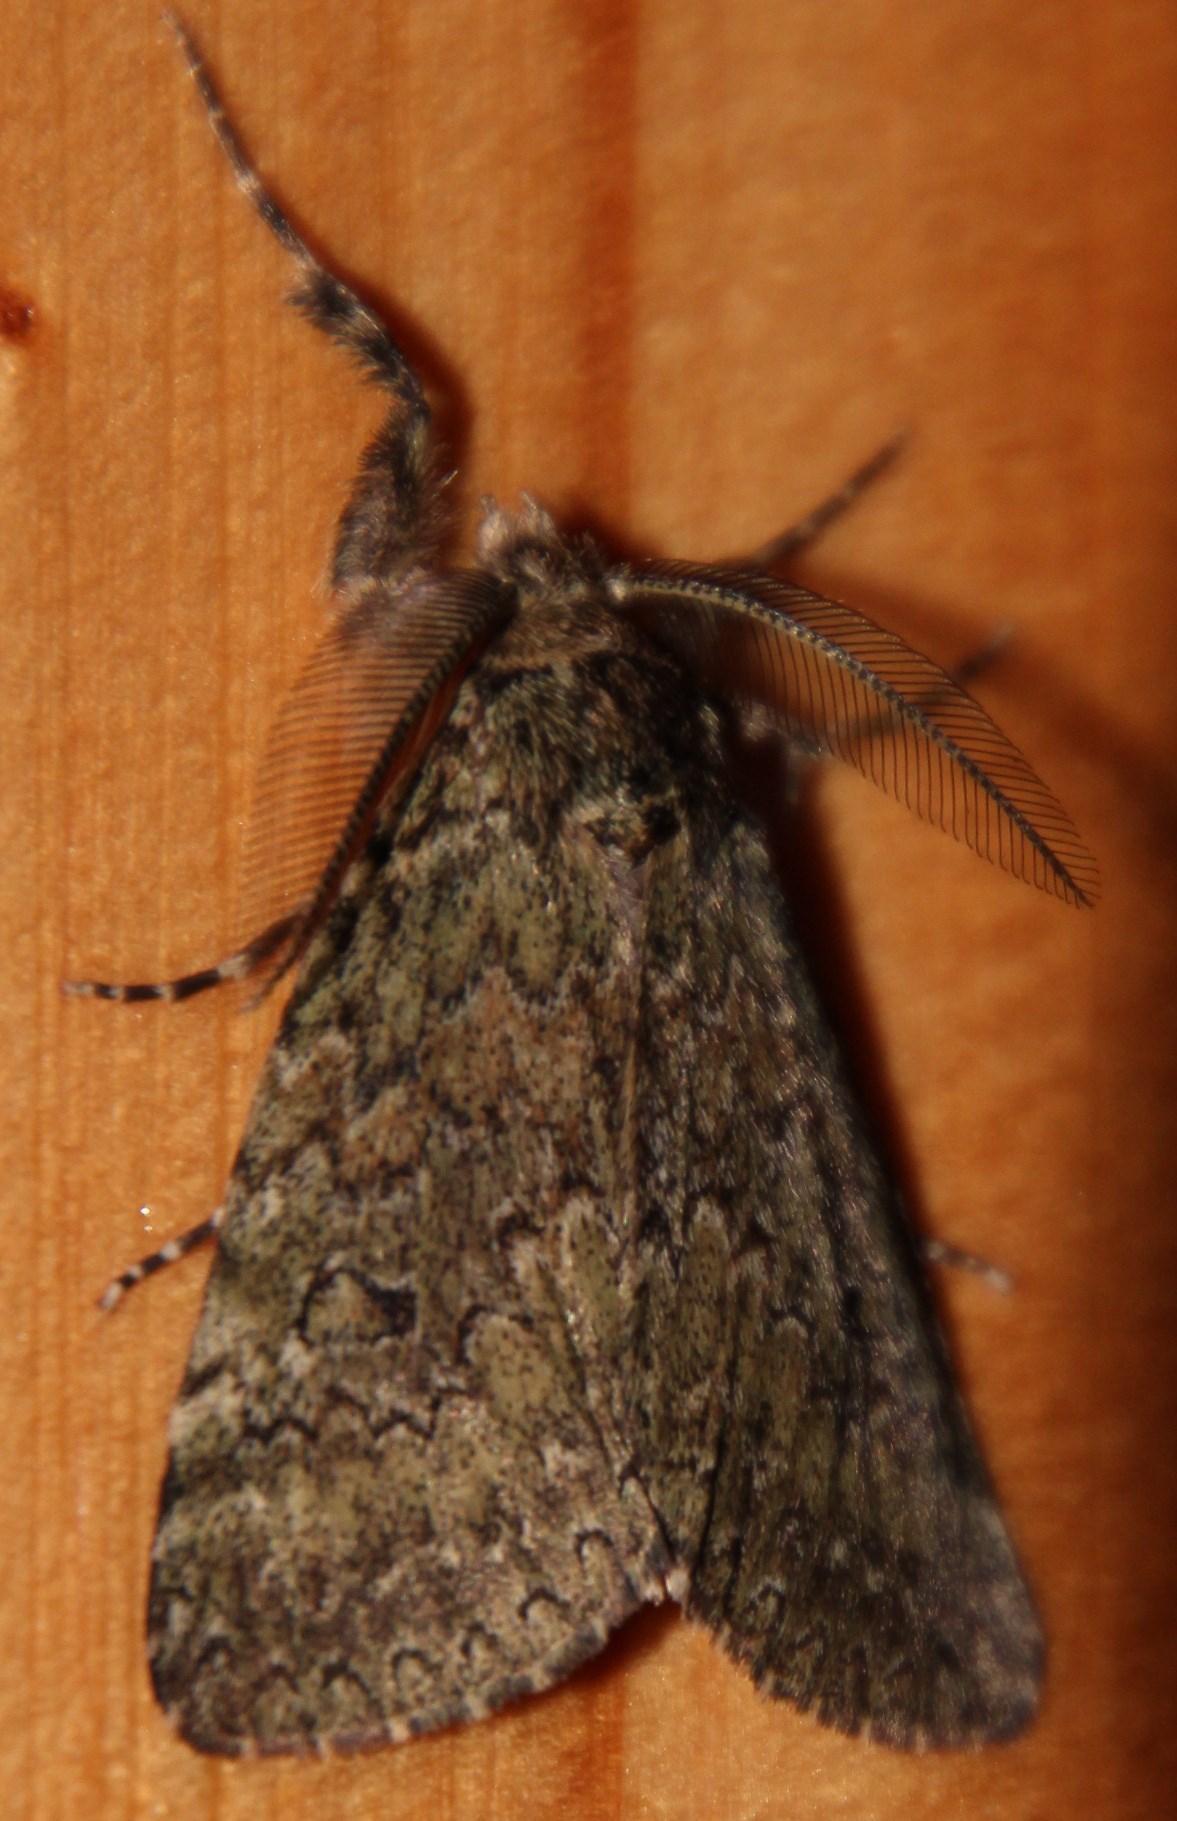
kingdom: Animalia
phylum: Arthropoda
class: Insecta
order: Lepidoptera
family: Erebidae
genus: Laelia
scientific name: Laelia fusca
